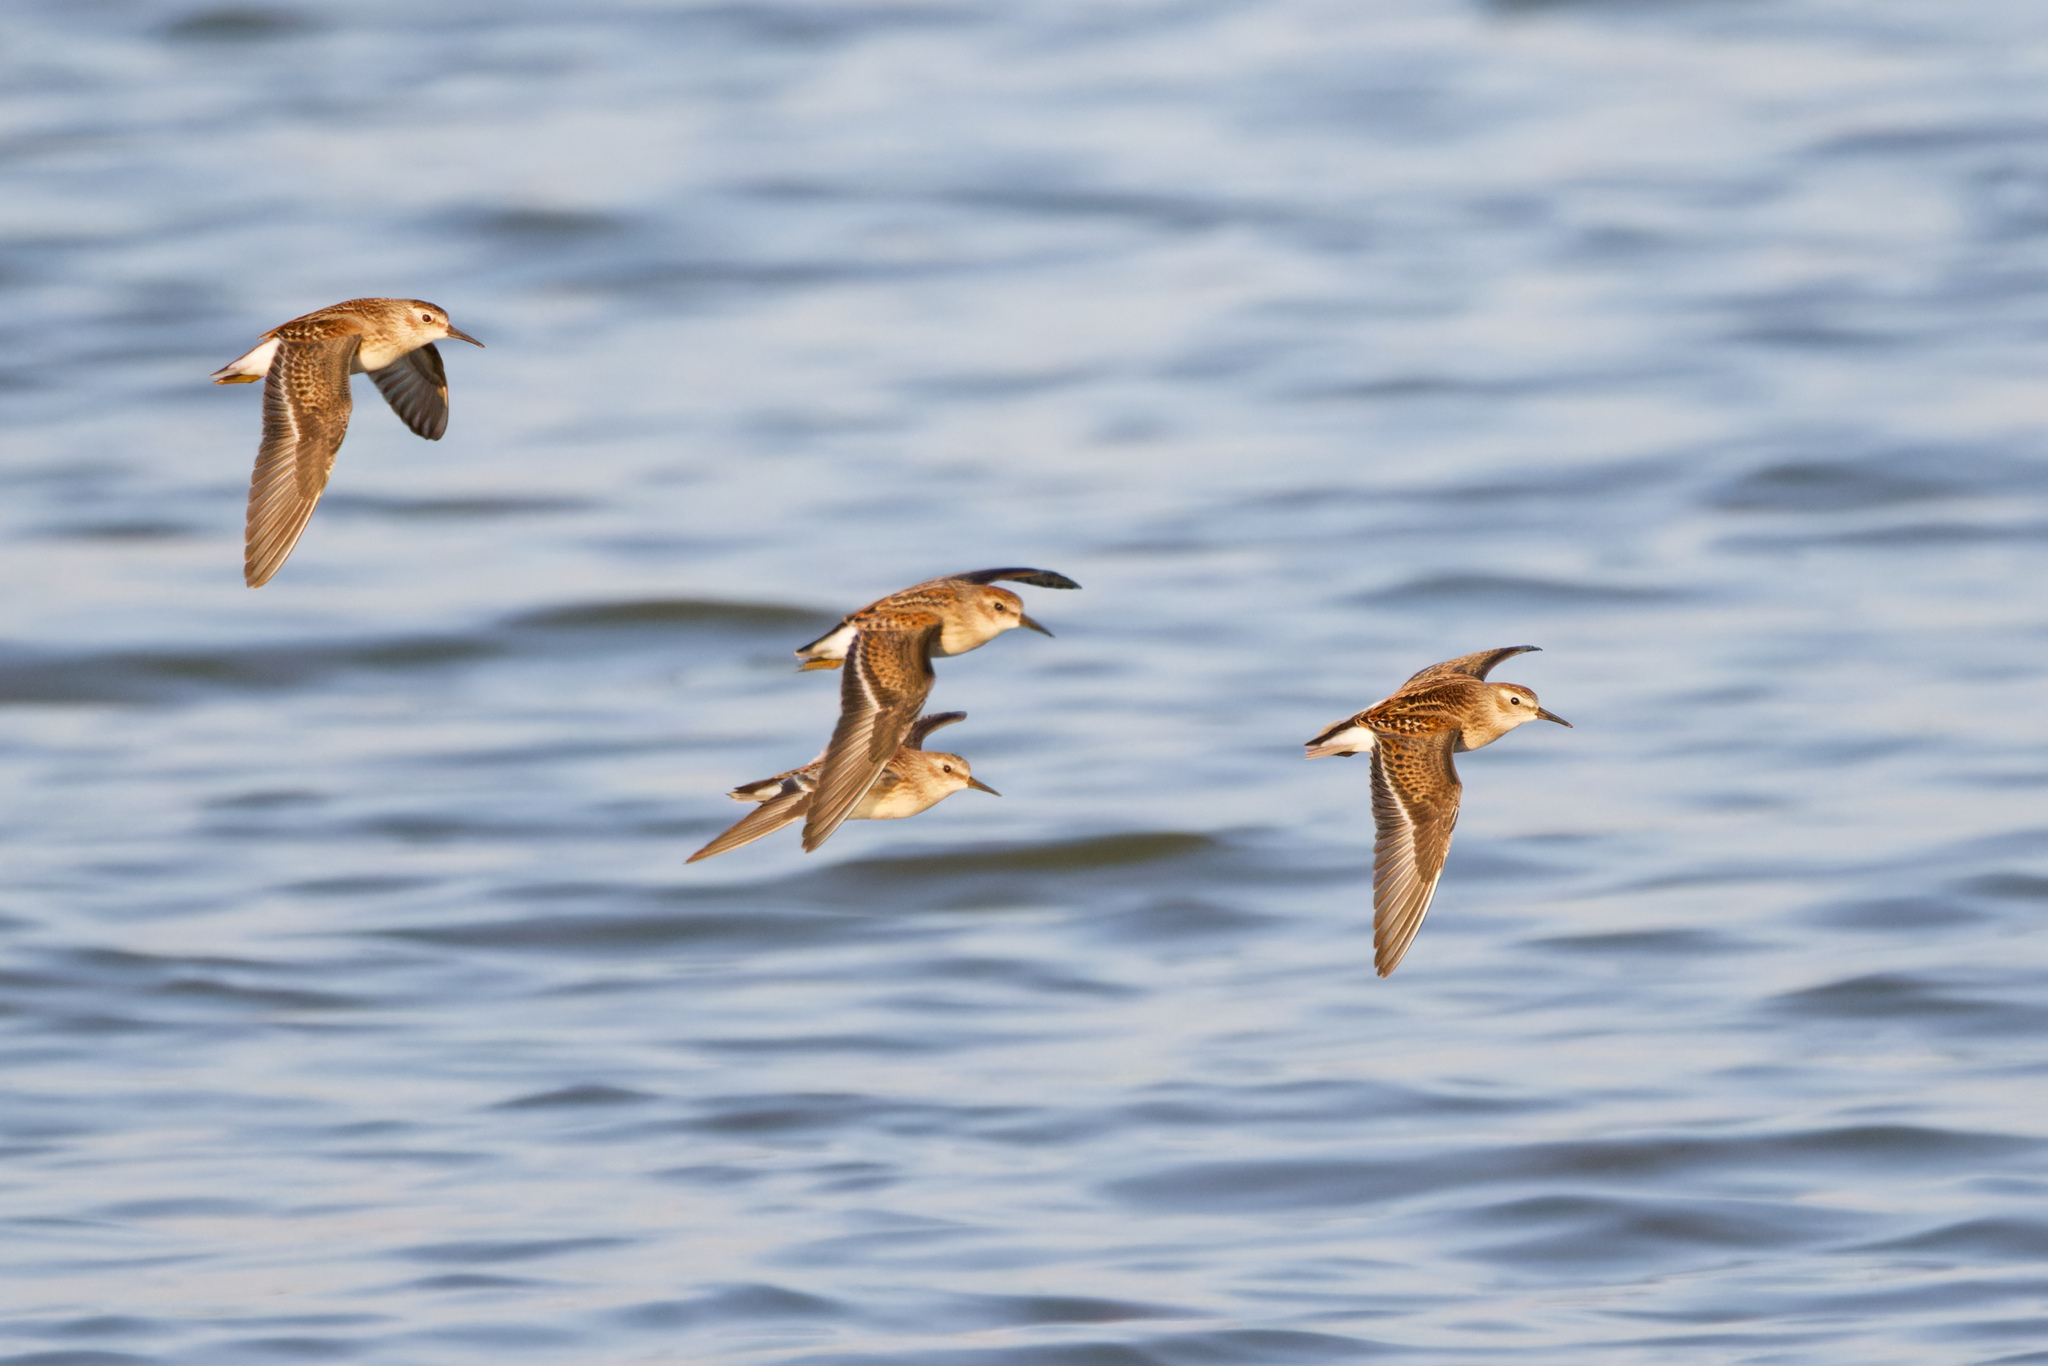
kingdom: Animalia
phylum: Chordata
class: Aves
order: Charadriiformes
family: Scolopacidae
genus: Calidris
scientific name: Calidris minutilla
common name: Least sandpiper
